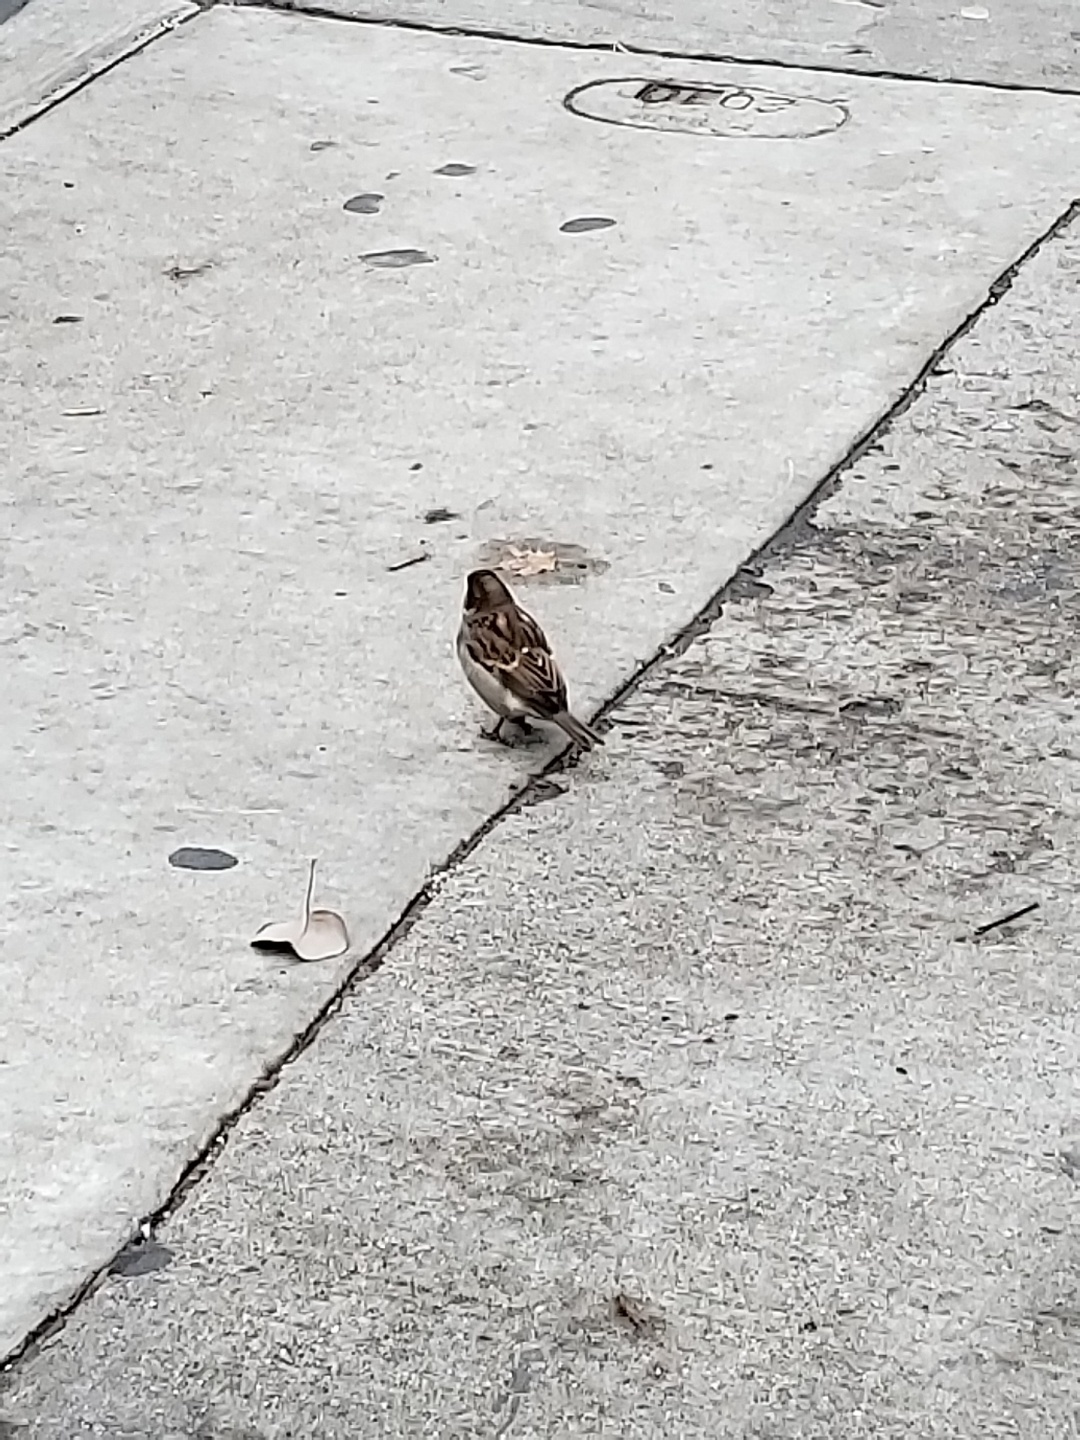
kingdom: Animalia
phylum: Chordata
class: Aves
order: Passeriformes
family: Passeridae
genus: Passer
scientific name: Passer domesticus
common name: House sparrow
